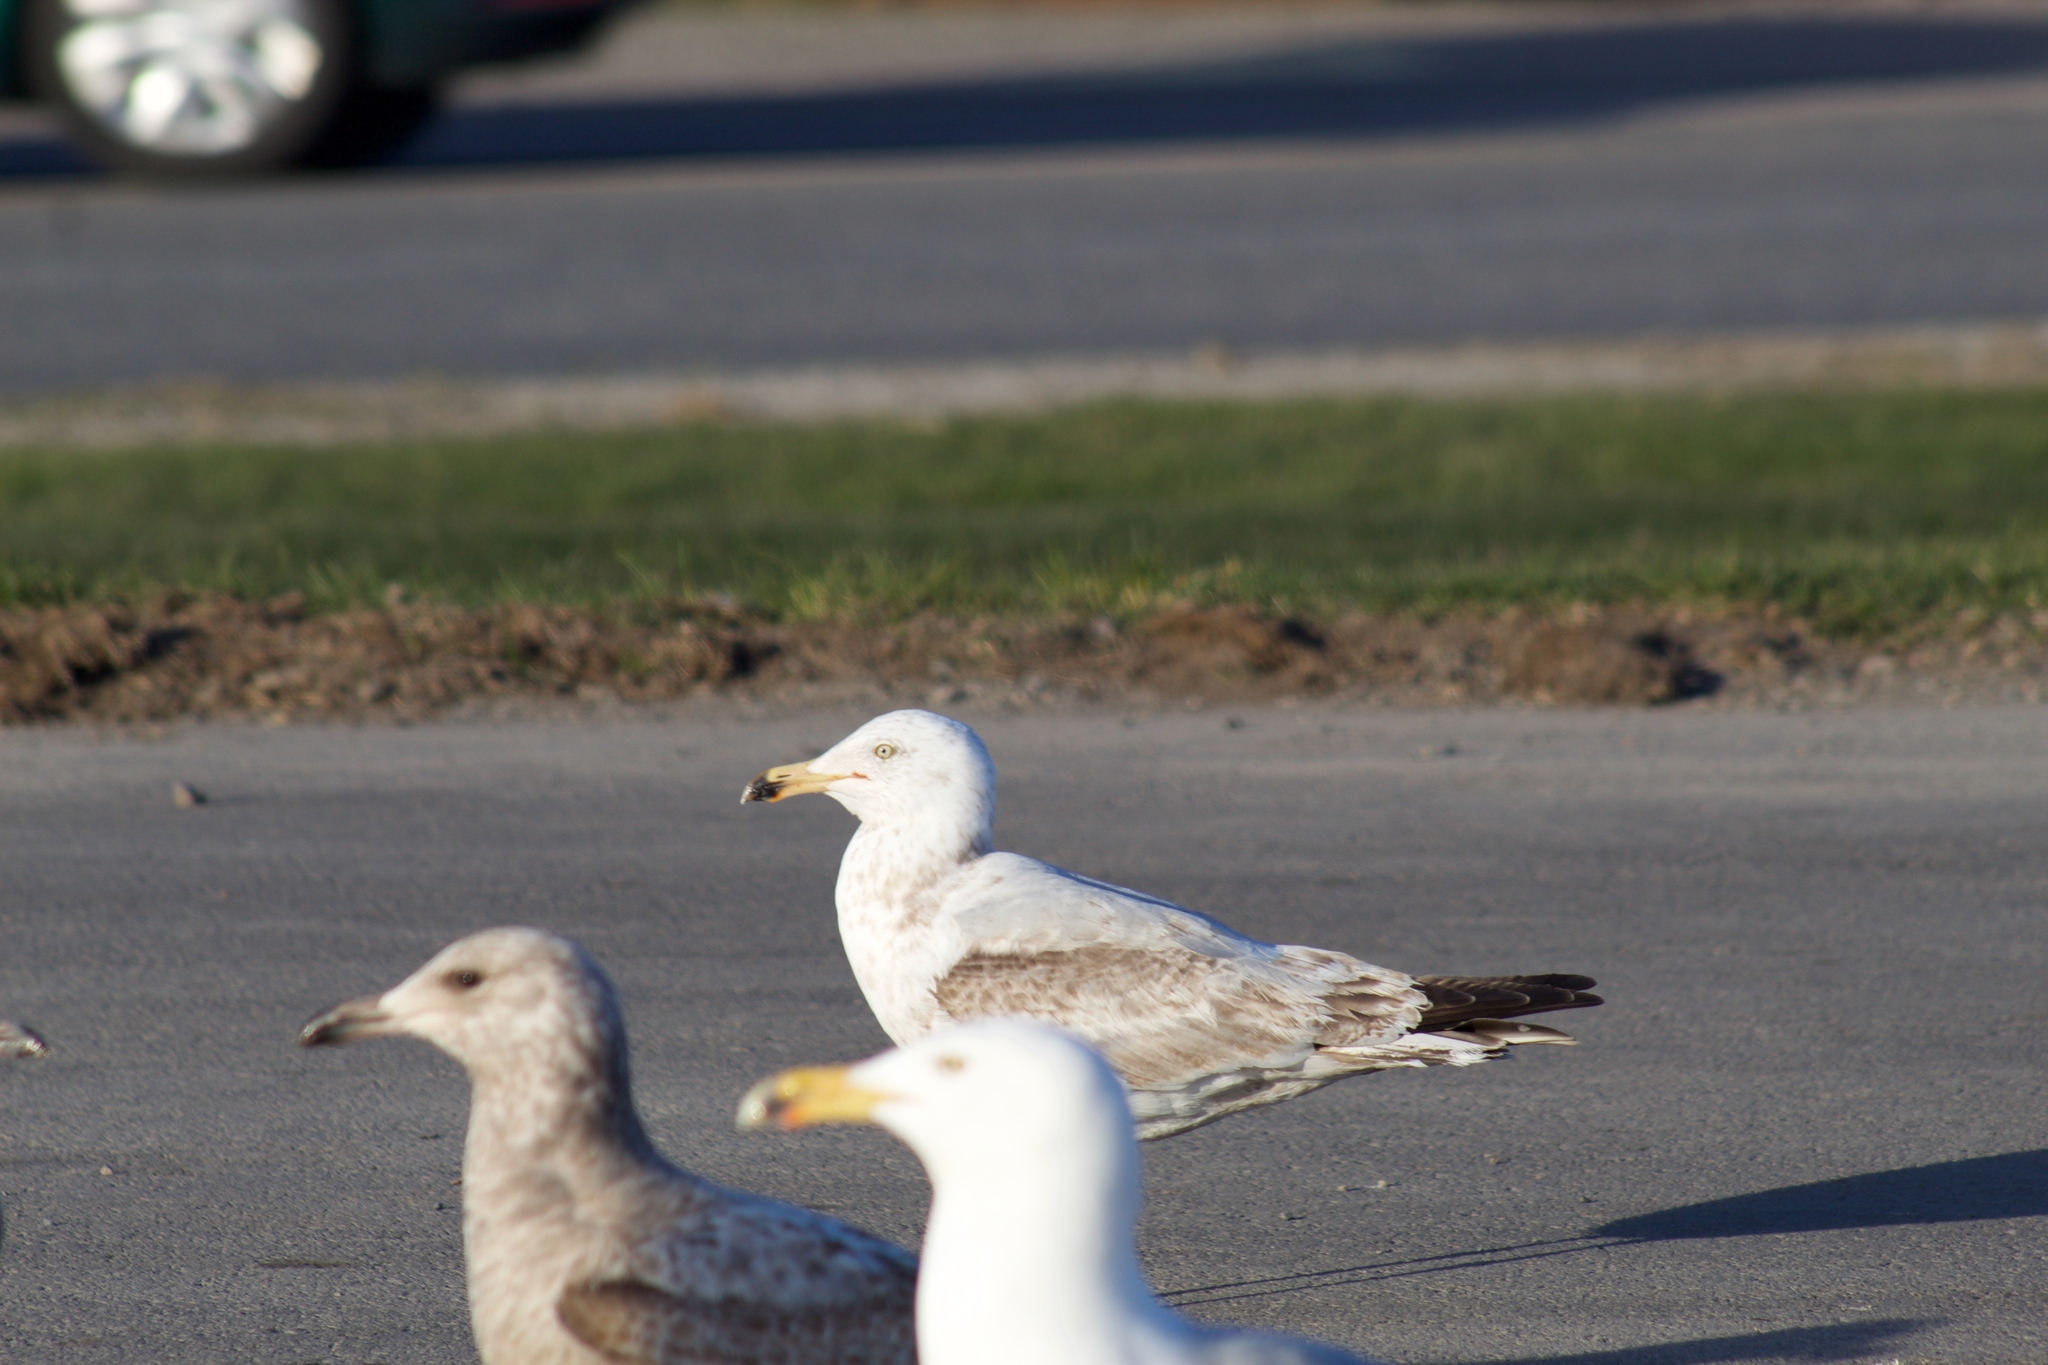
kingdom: Animalia
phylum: Chordata
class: Aves
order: Charadriiformes
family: Laridae
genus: Larus
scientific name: Larus argentatus
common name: Herring gull
